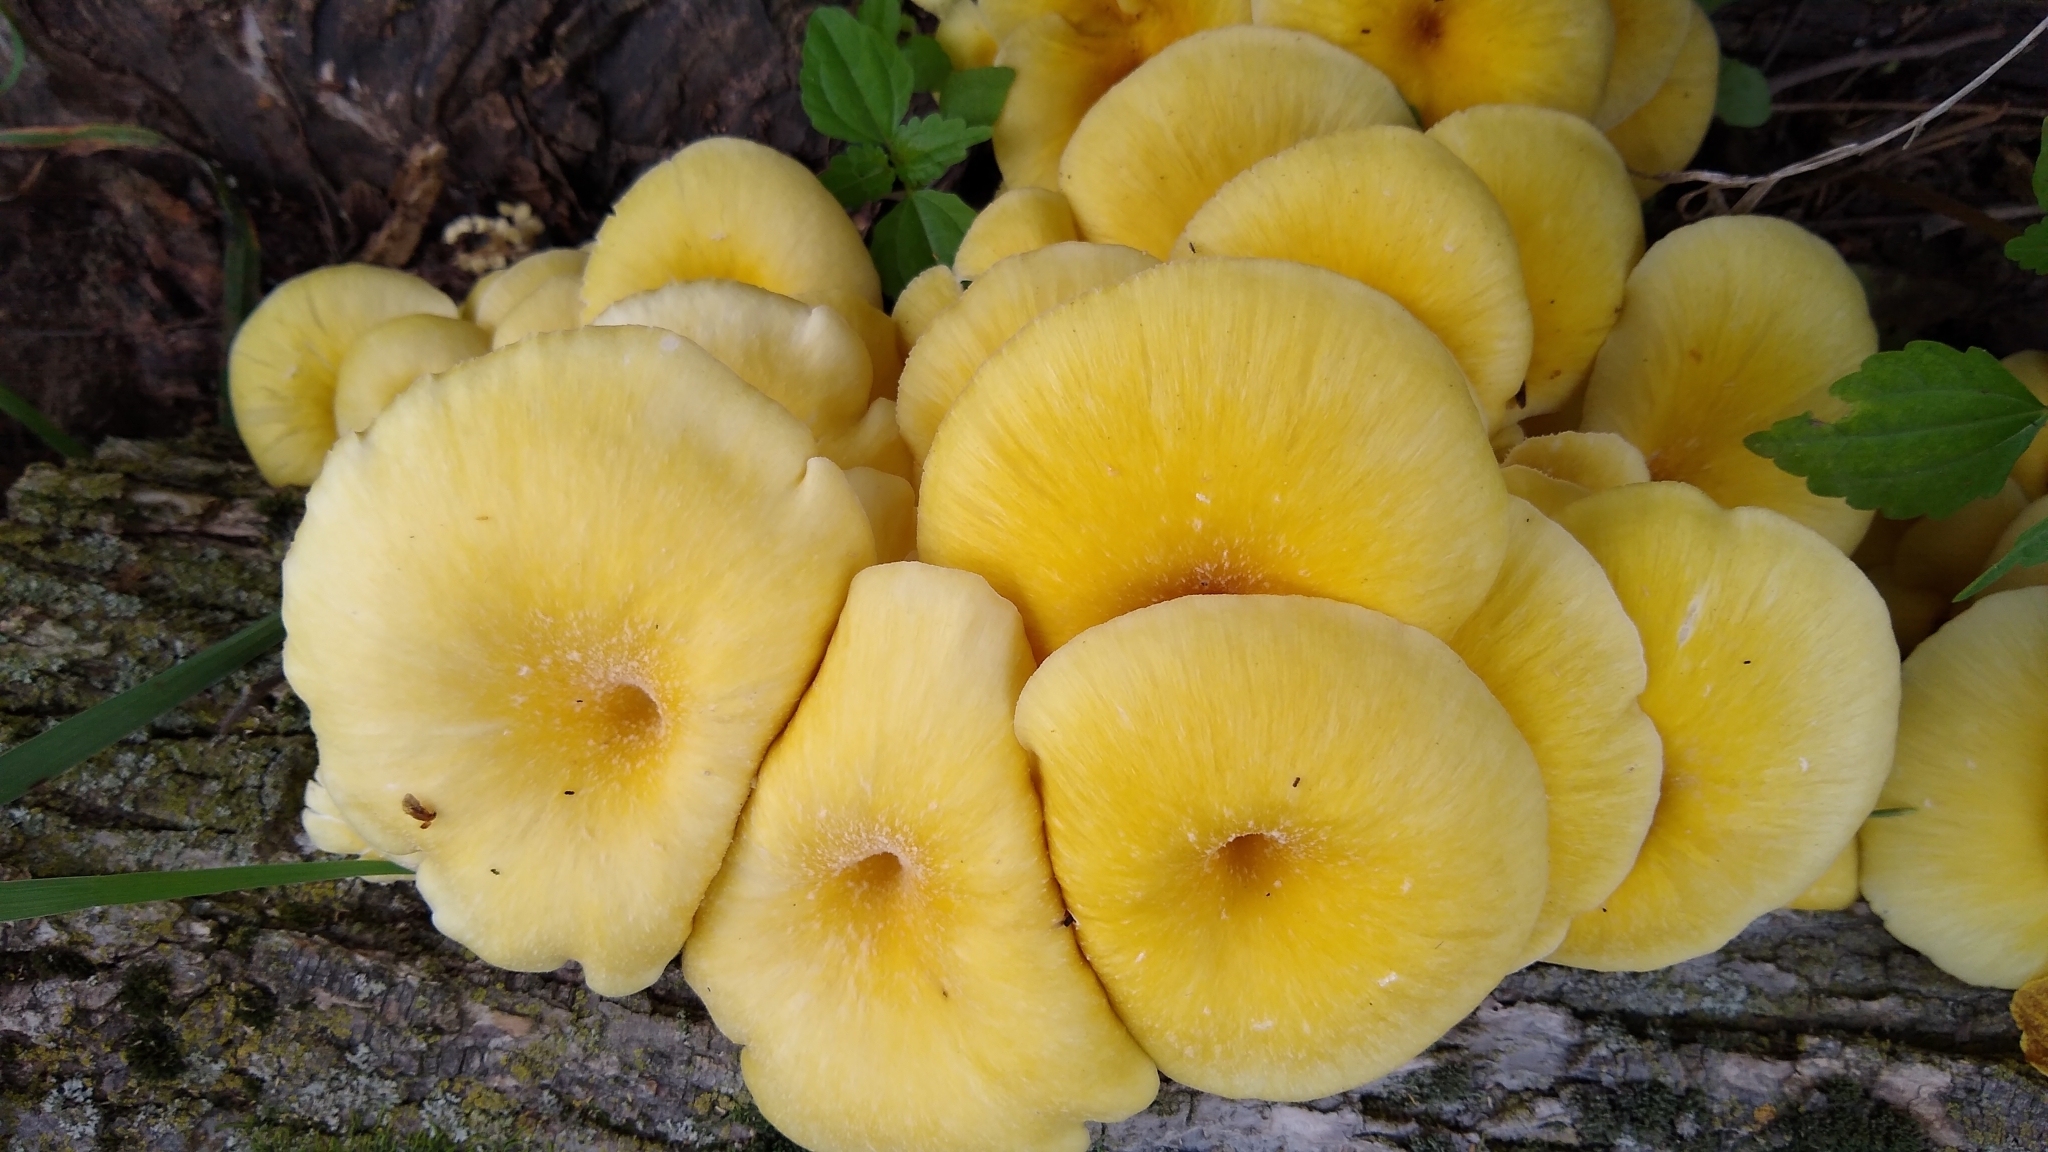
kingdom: Fungi
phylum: Basidiomycota
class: Agaricomycetes
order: Agaricales
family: Pleurotaceae
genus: Pleurotus
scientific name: Pleurotus citrinopileatus
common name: Golden oyster mushroom
